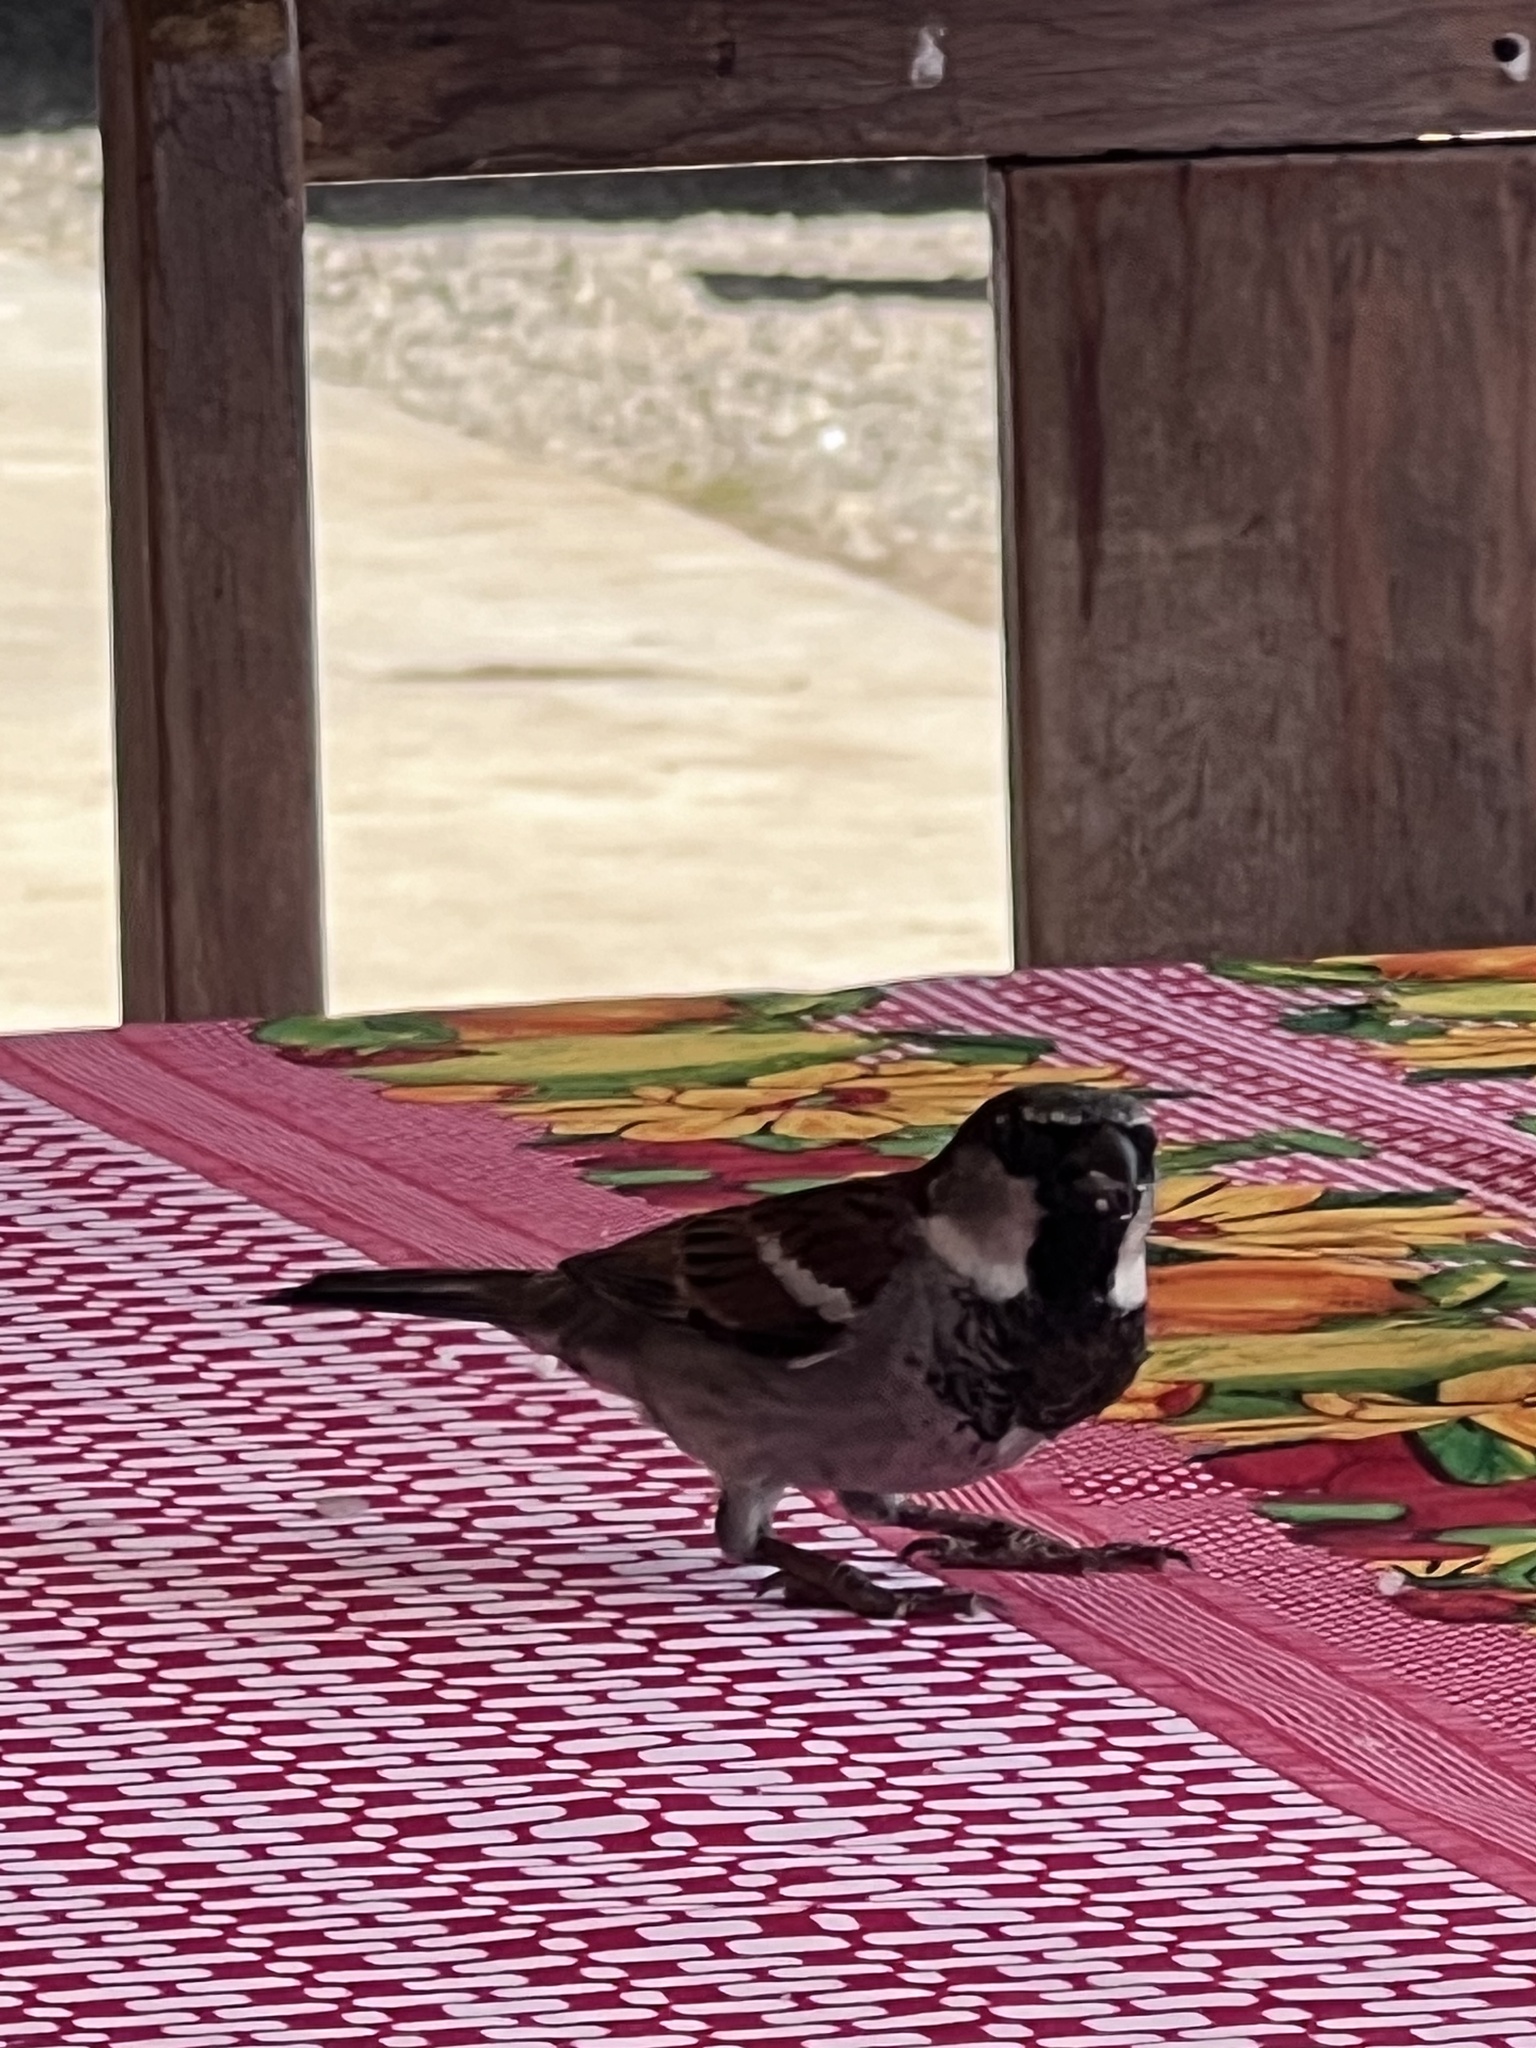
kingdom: Animalia
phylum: Chordata
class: Aves
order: Passeriformes
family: Passeridae
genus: Passer
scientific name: Passer domesticus
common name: House sparrow
